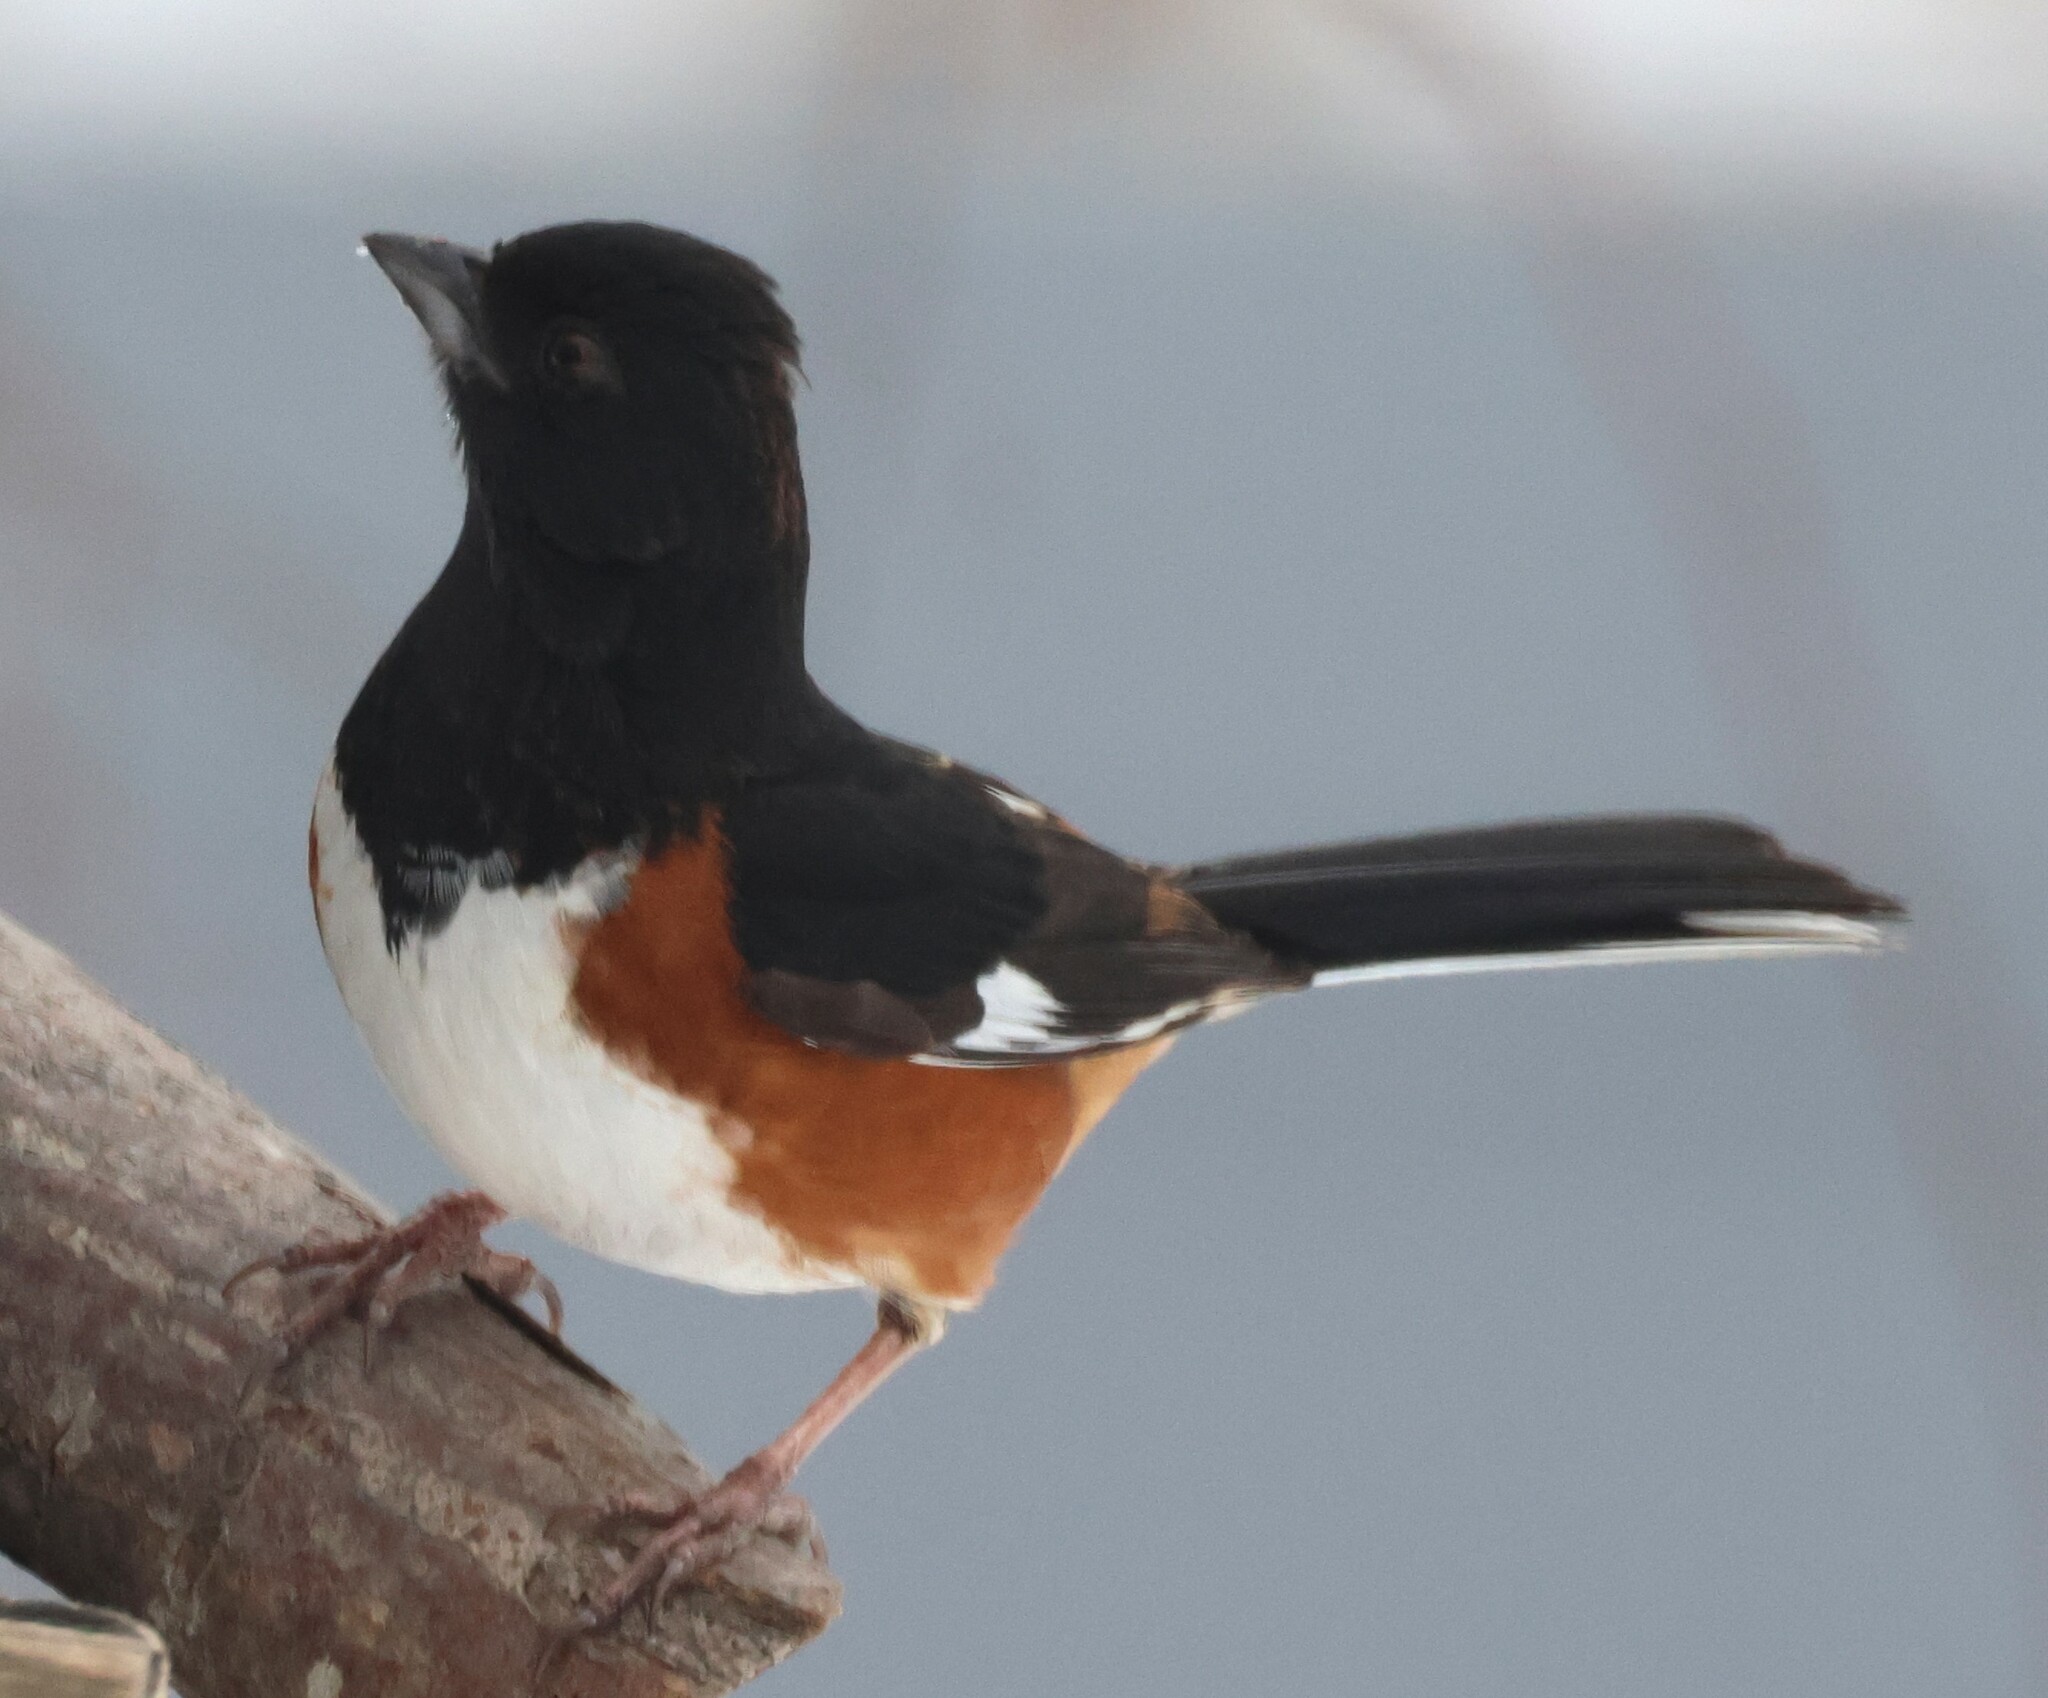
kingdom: Animalia
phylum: Chordata
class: Aves
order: Passeriformes
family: Passerellidae
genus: Pipilo
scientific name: Pipilo erythrophthalmus
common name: Eastern towhee
